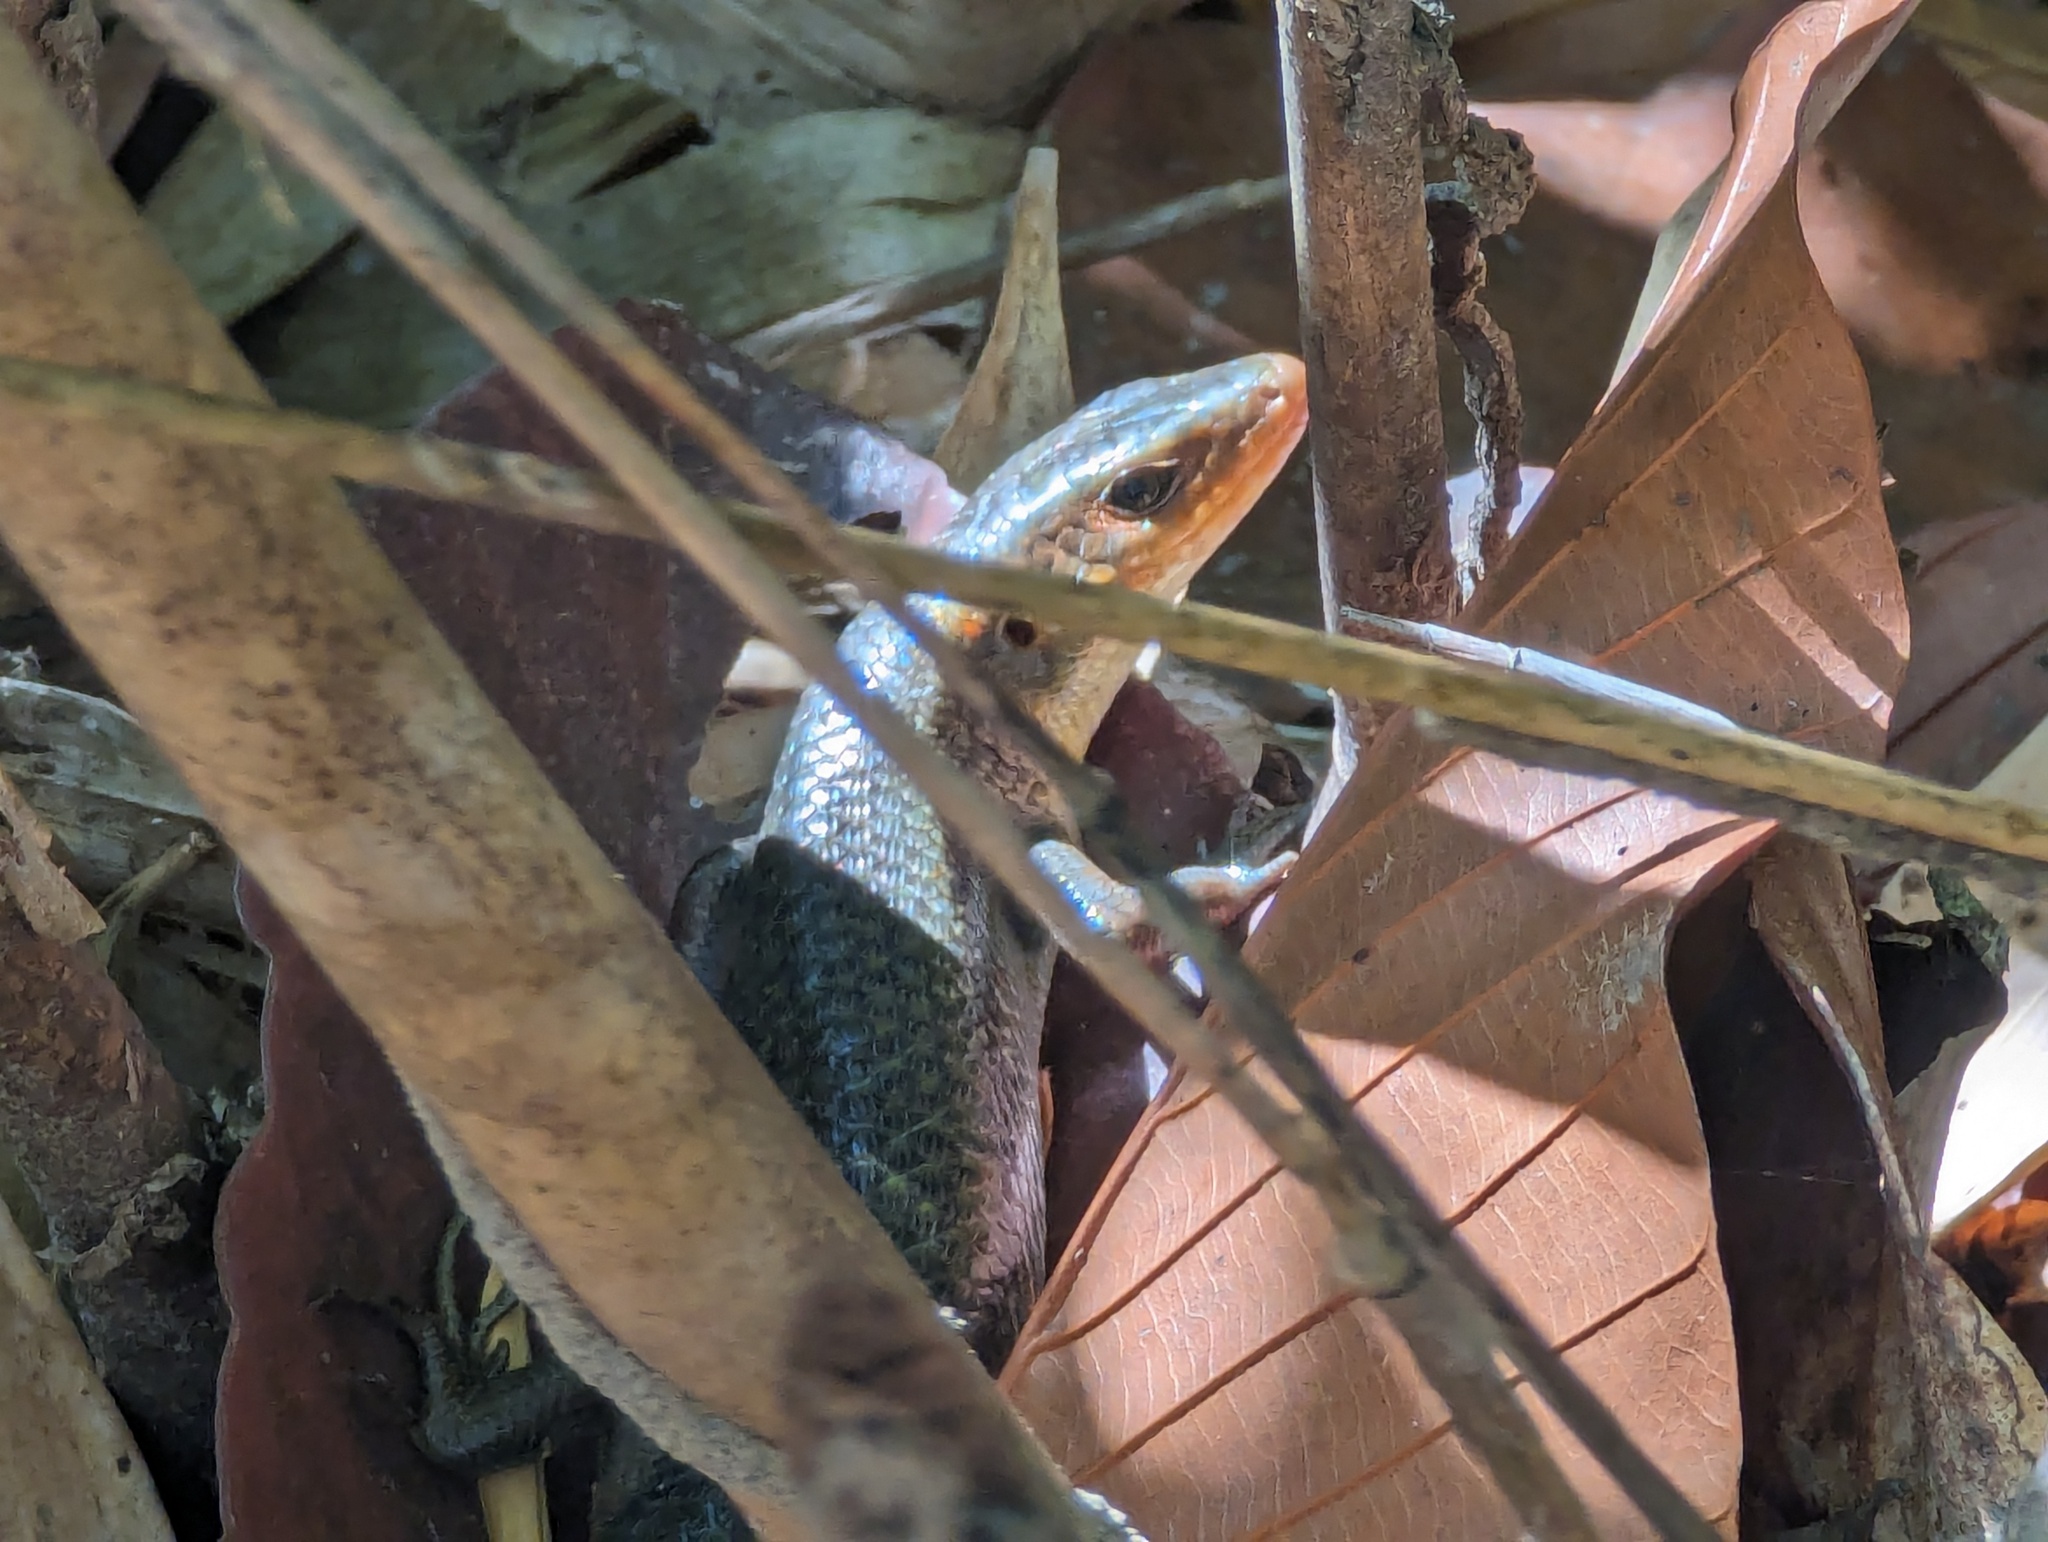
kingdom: Animalia
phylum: Chordata
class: Squamata
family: Scincidae
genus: Eutropis
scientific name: Eutropis multifasciata
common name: Common mabuya
